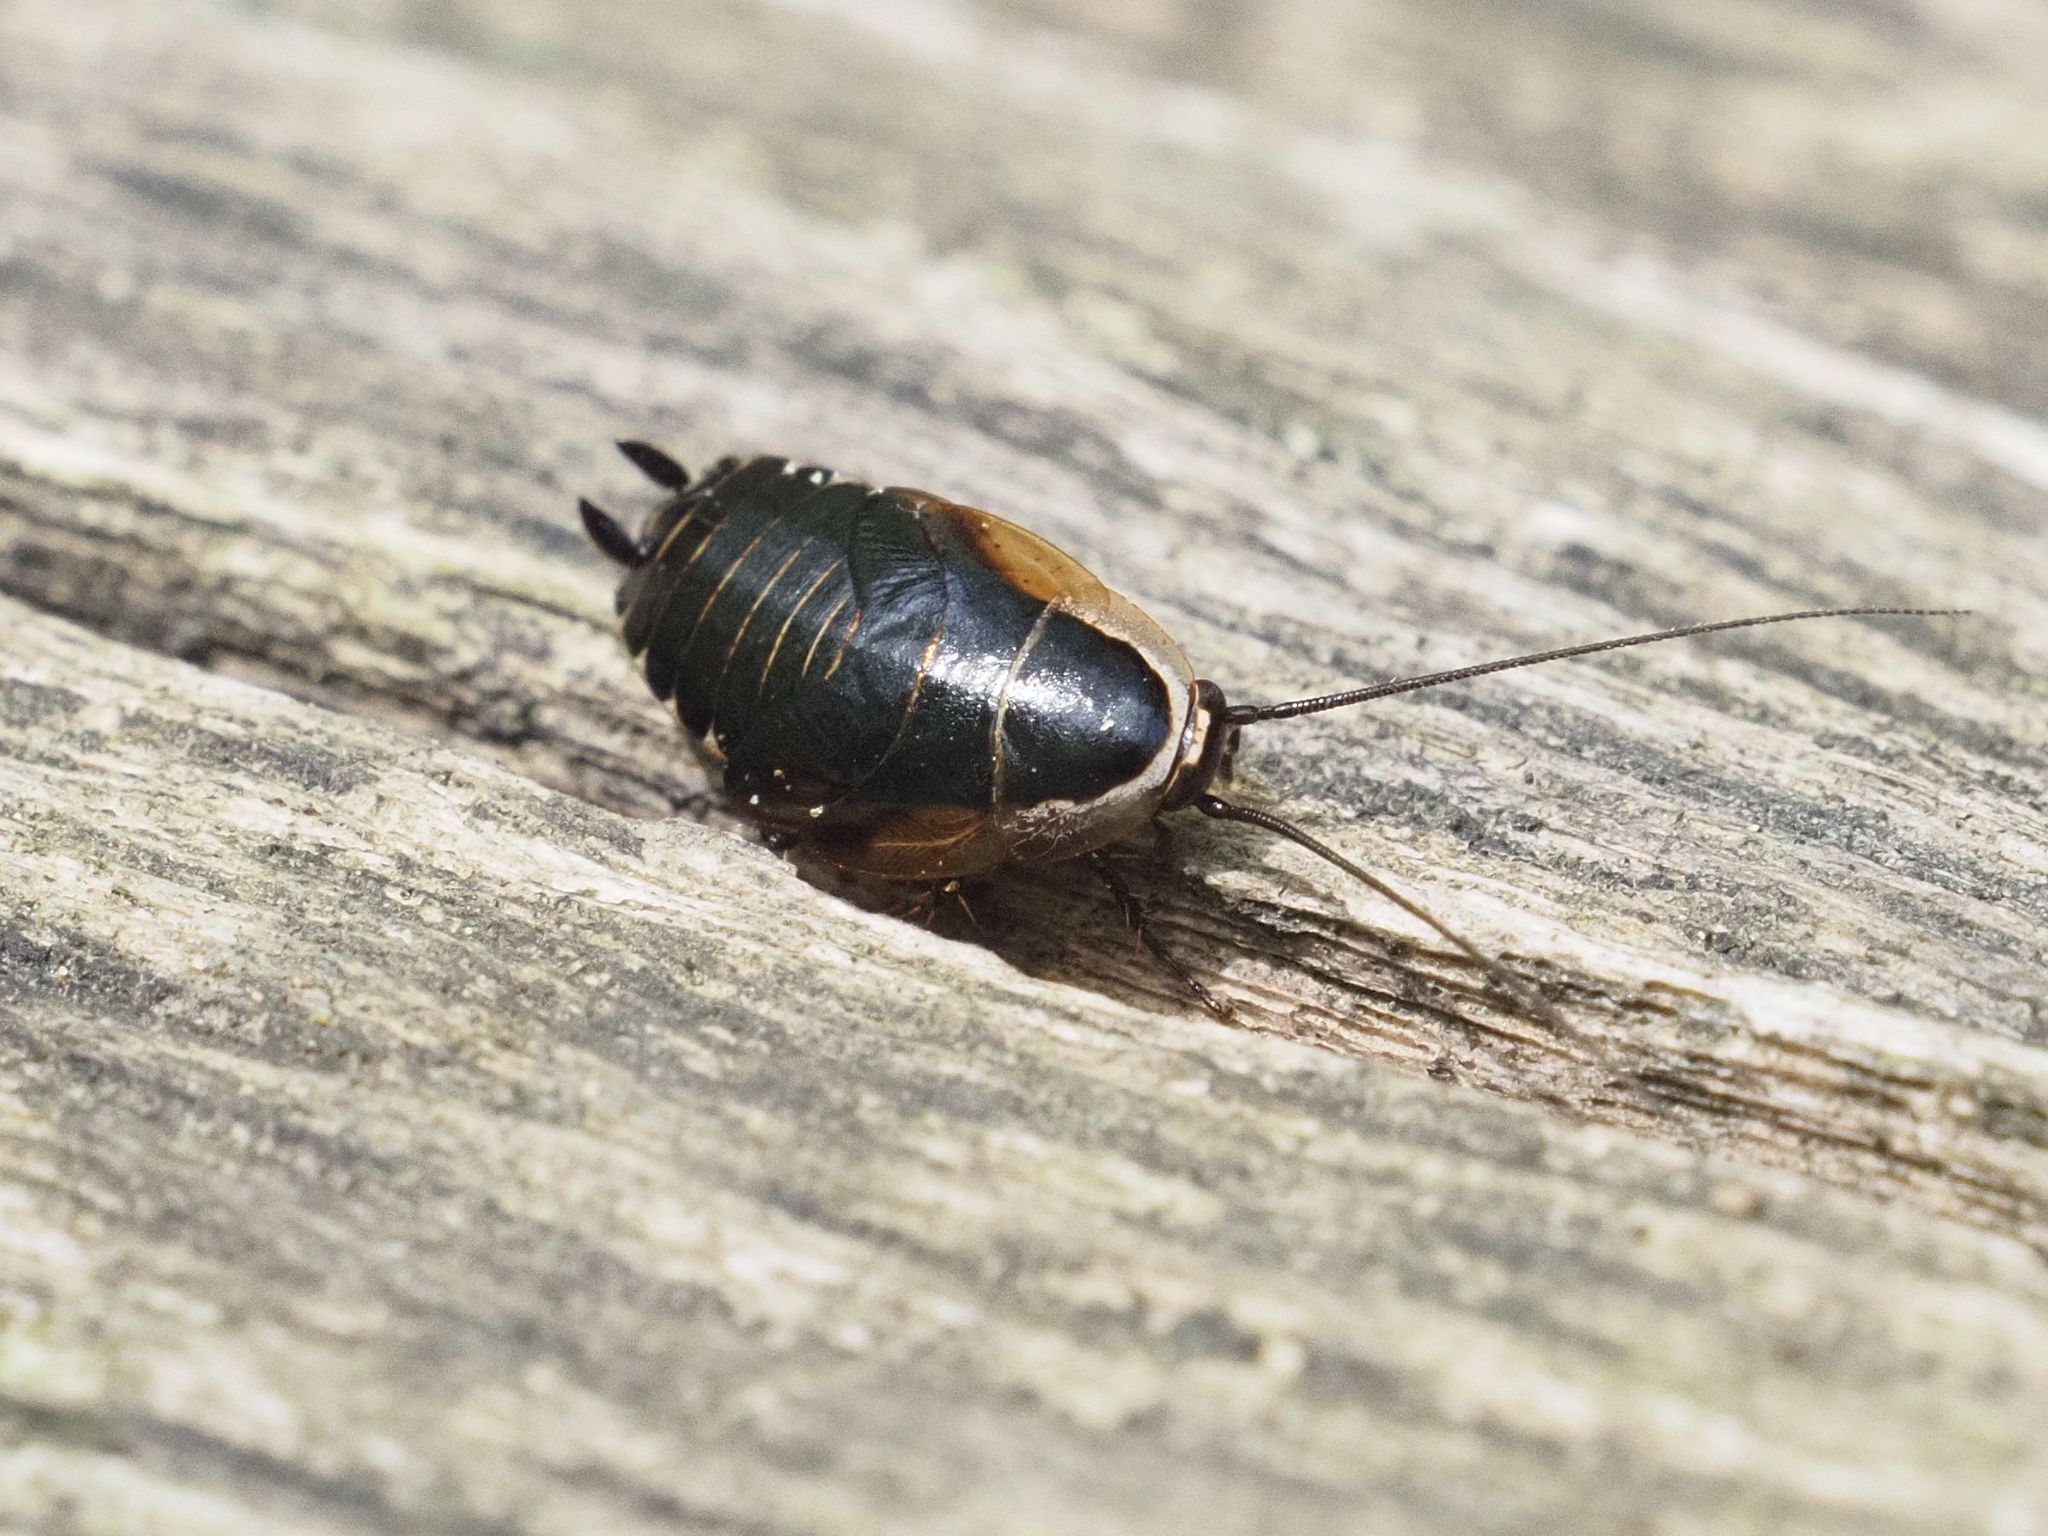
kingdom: Animalia
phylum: Arthropoda
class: Insecta
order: Blattodea
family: Ectobiidae
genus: Ectobius
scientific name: Ectobius sylvestris
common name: Forest cockroach
